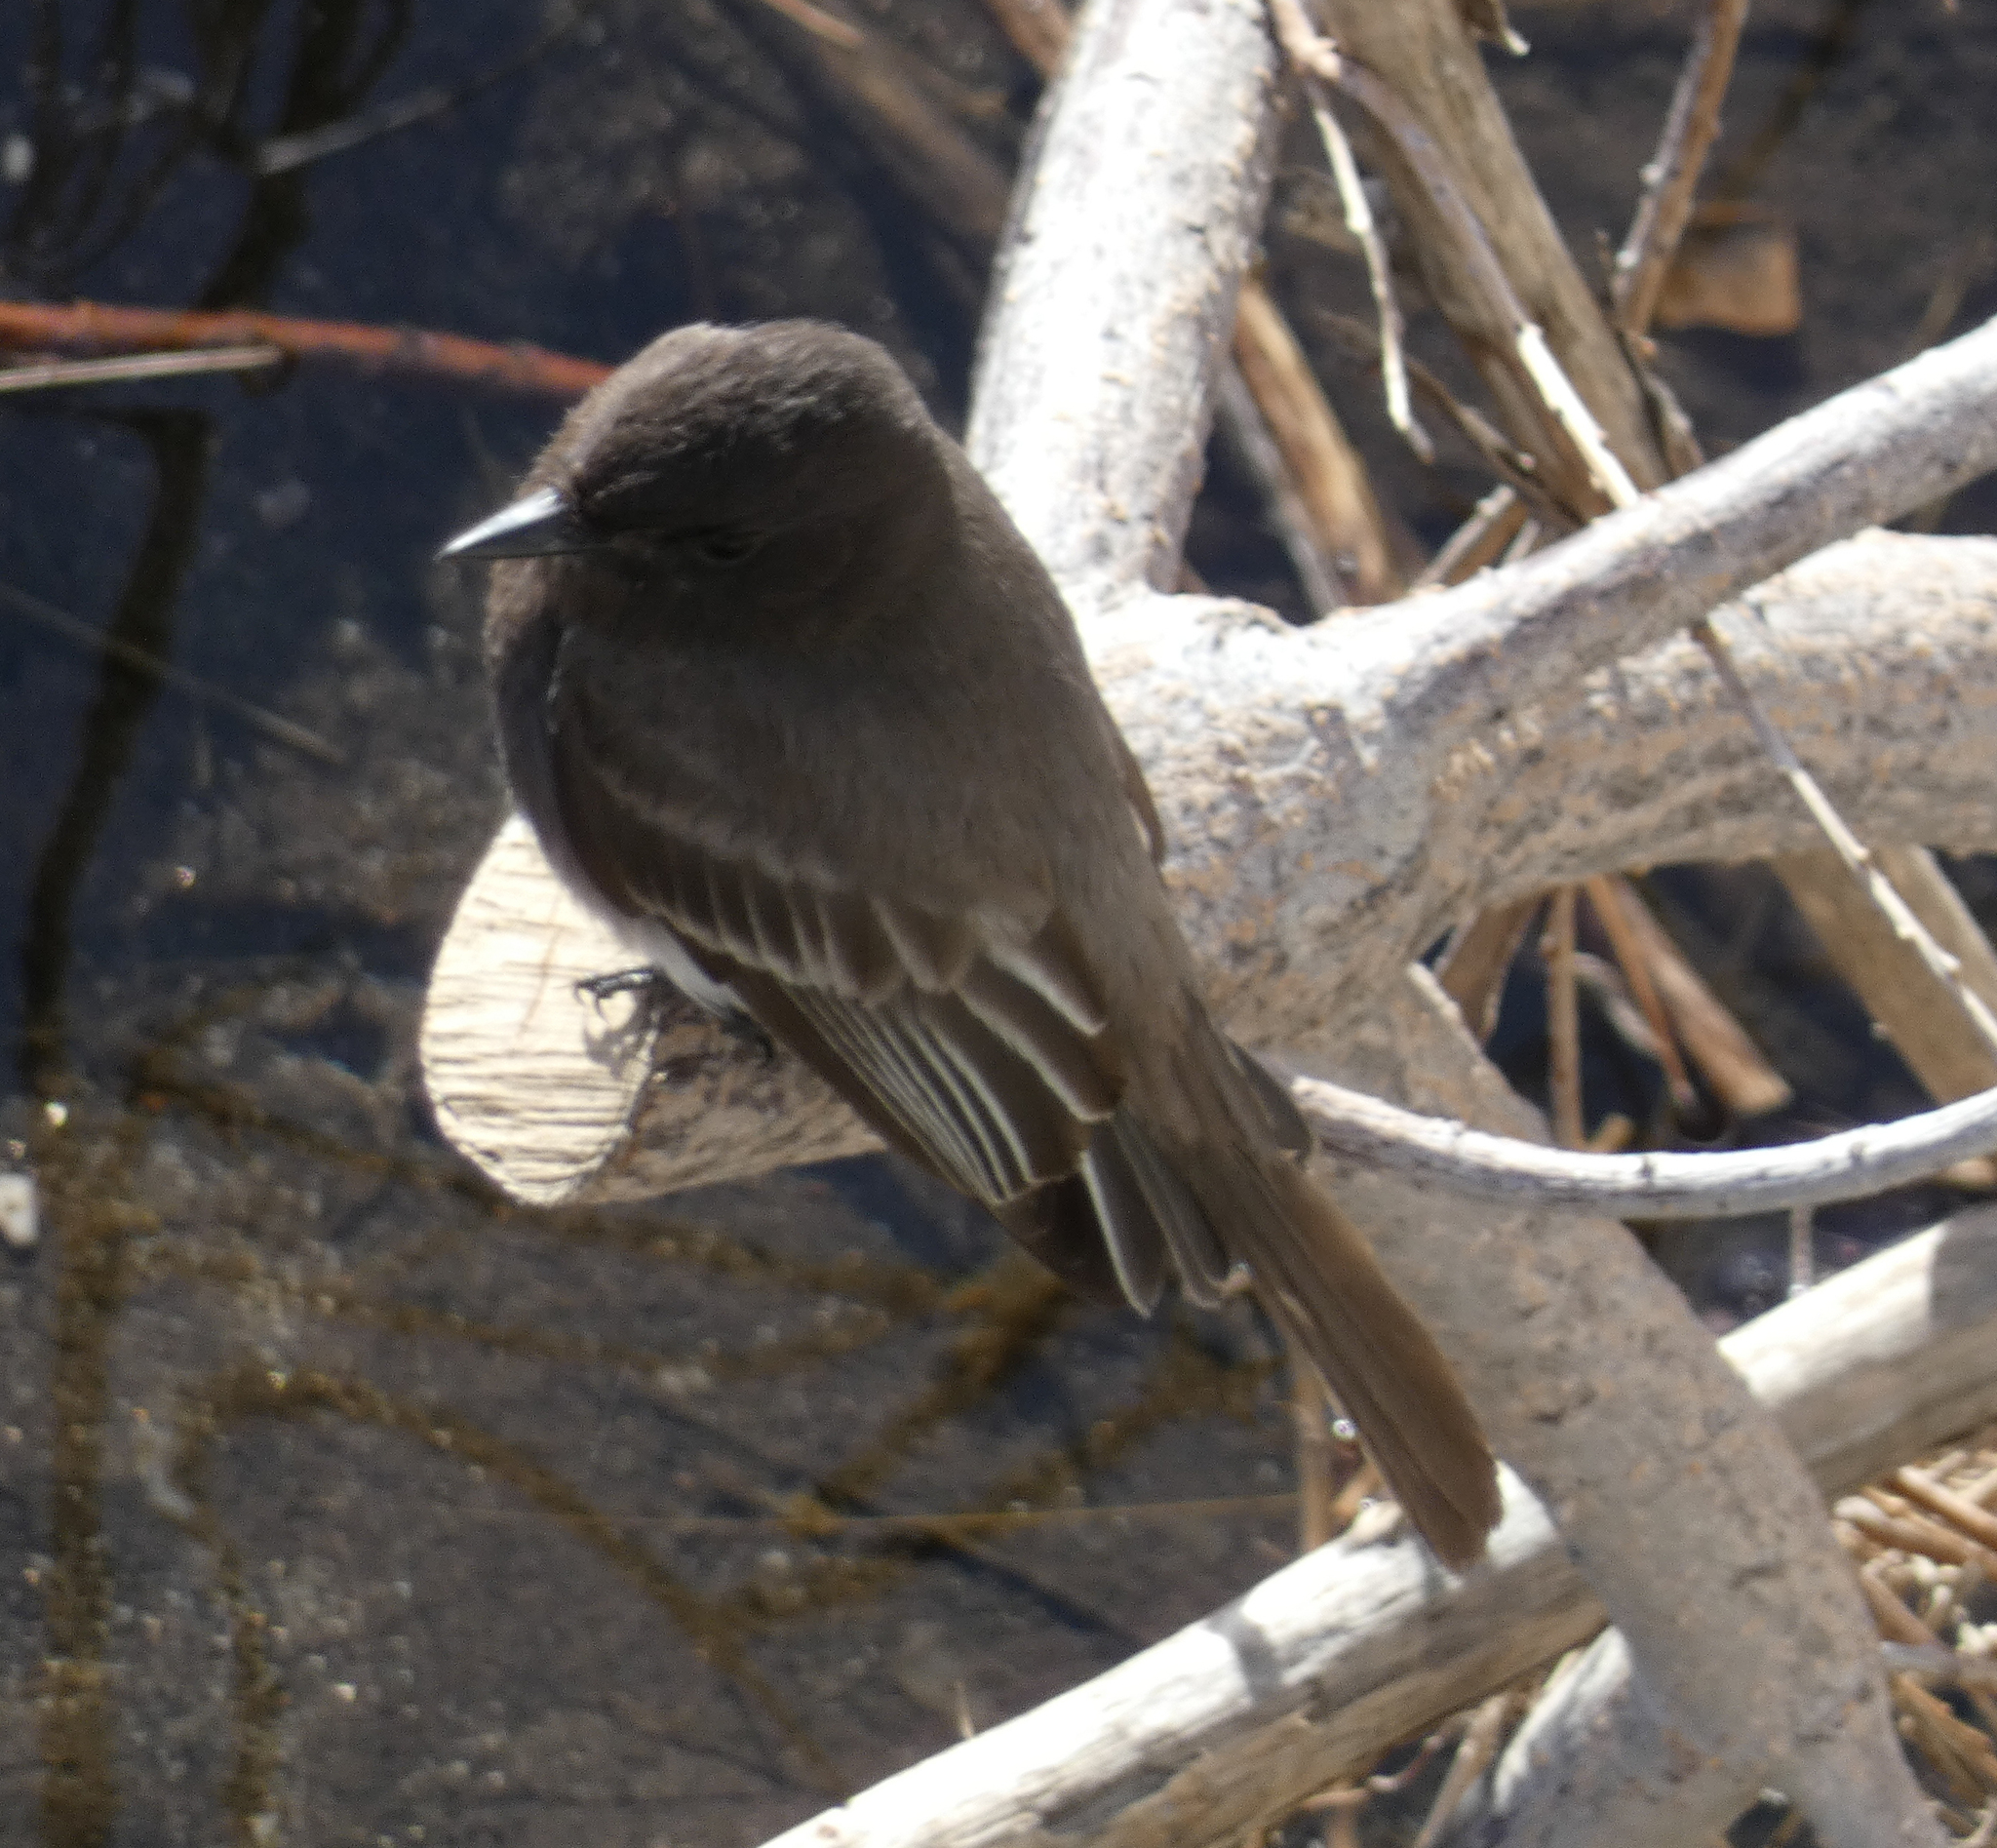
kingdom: Animalia
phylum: Chordata
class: Aves
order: Passeriformes
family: Tyrannidae
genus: Sayornis
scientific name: Sayornis nigricans
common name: Black phoebe
